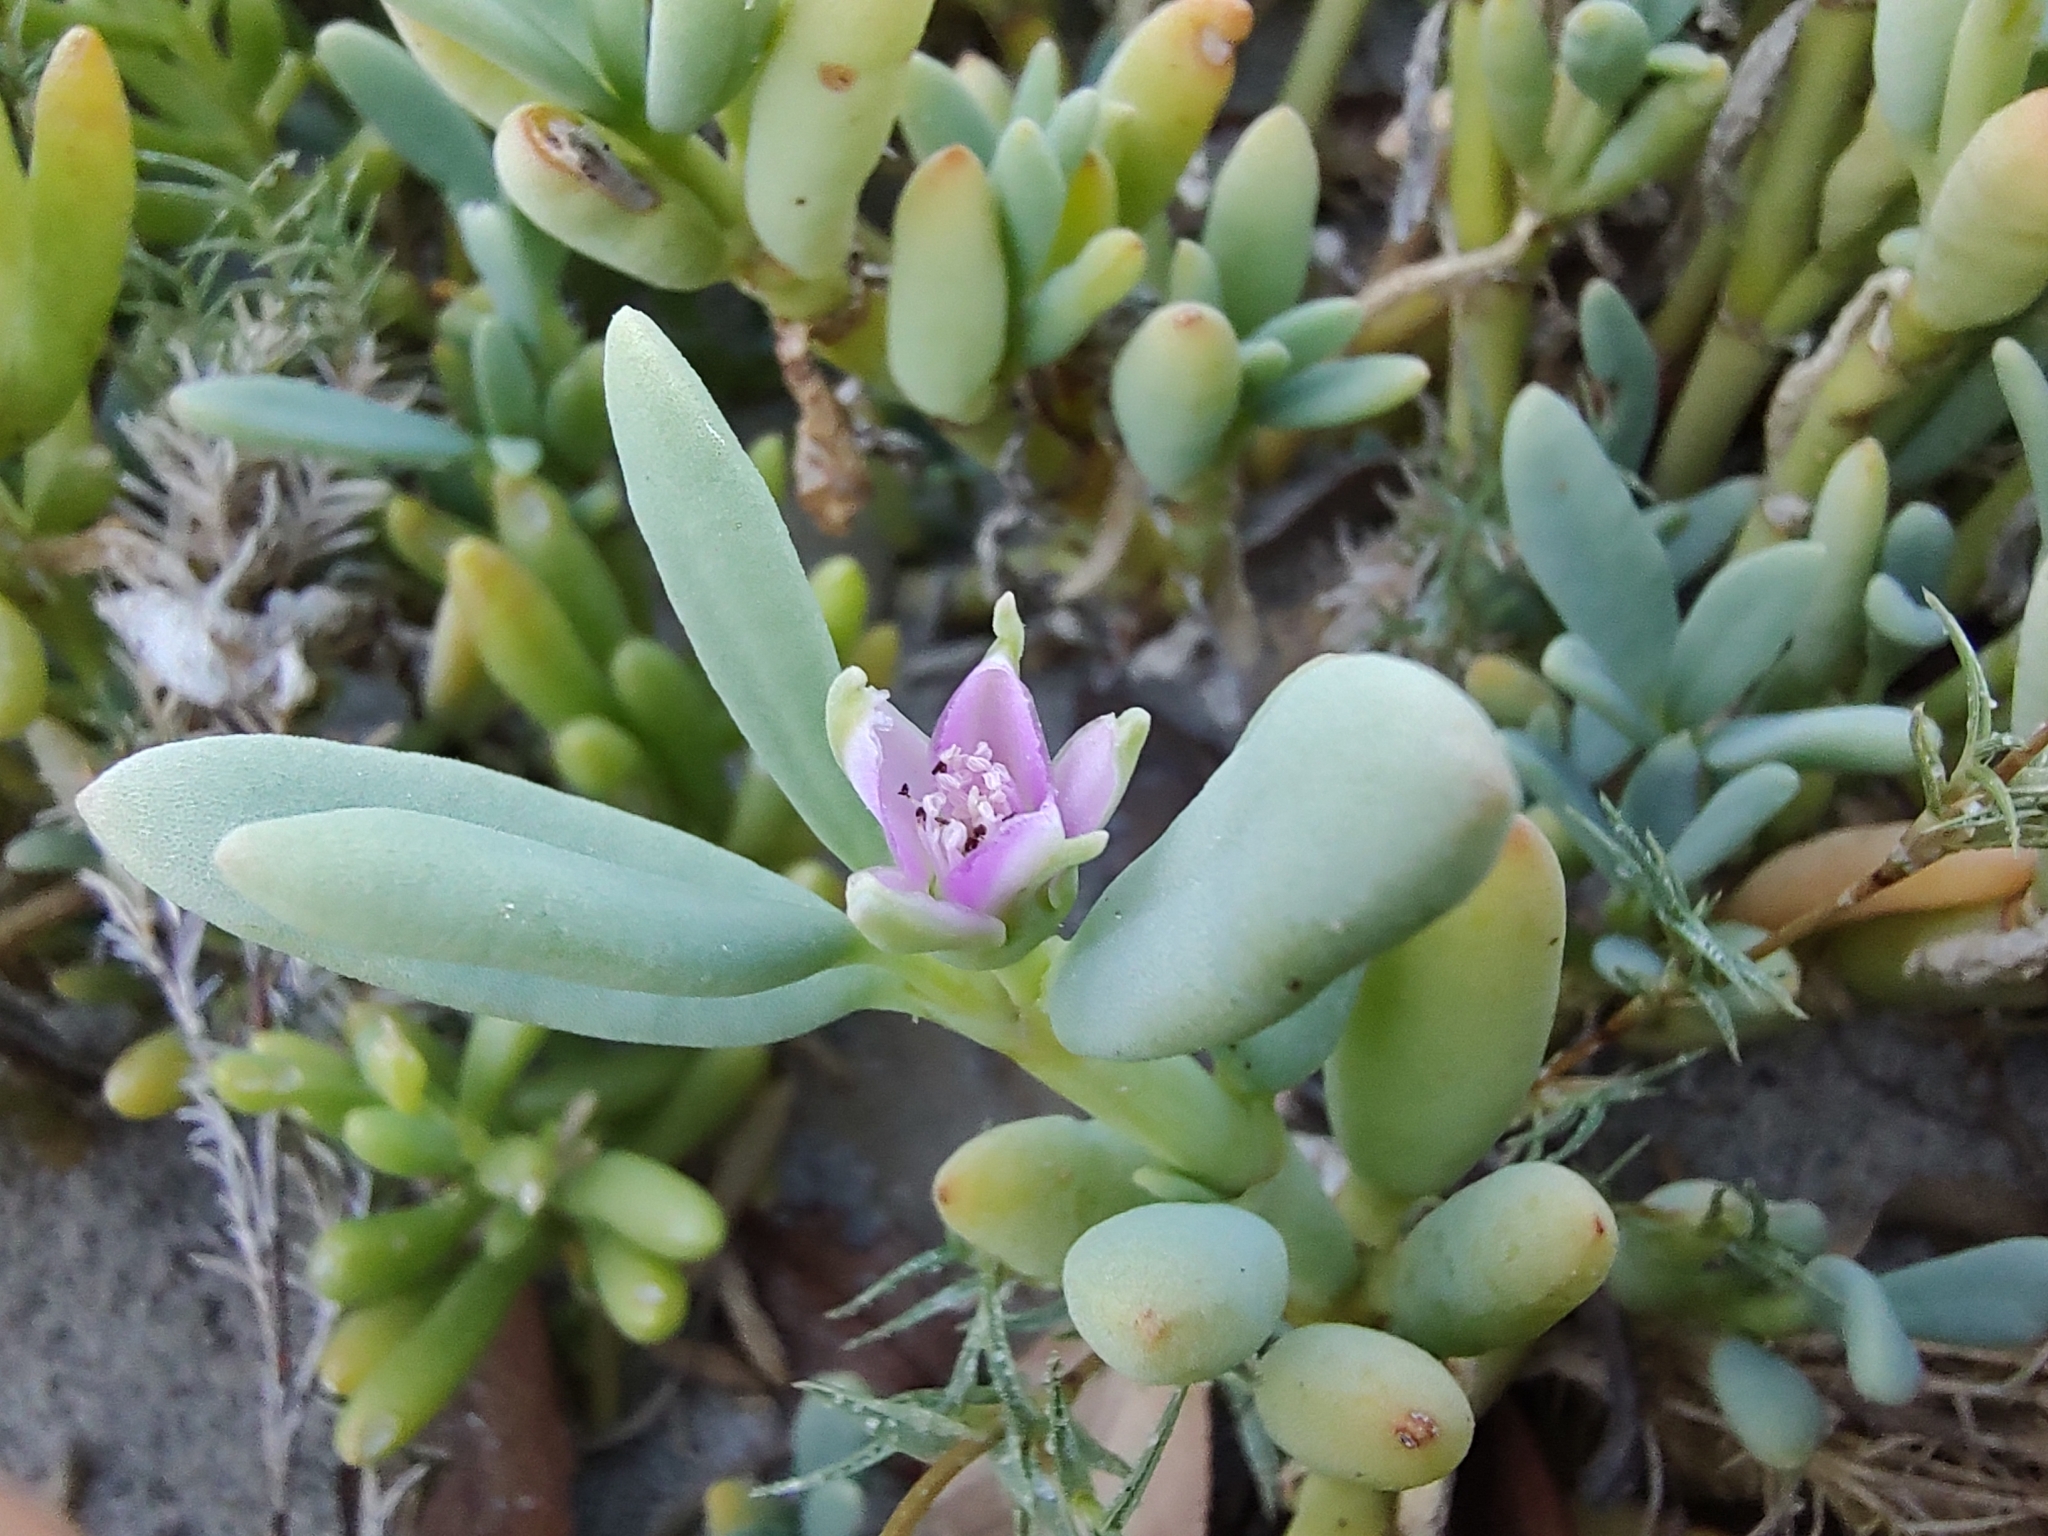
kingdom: Plantae
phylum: Tracheophyta
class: Magnoliopsida
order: Caryophyllales
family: Aizoaceae
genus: Sesuvium
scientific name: Sesuvium portulacastrum
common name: Sea-purslane
